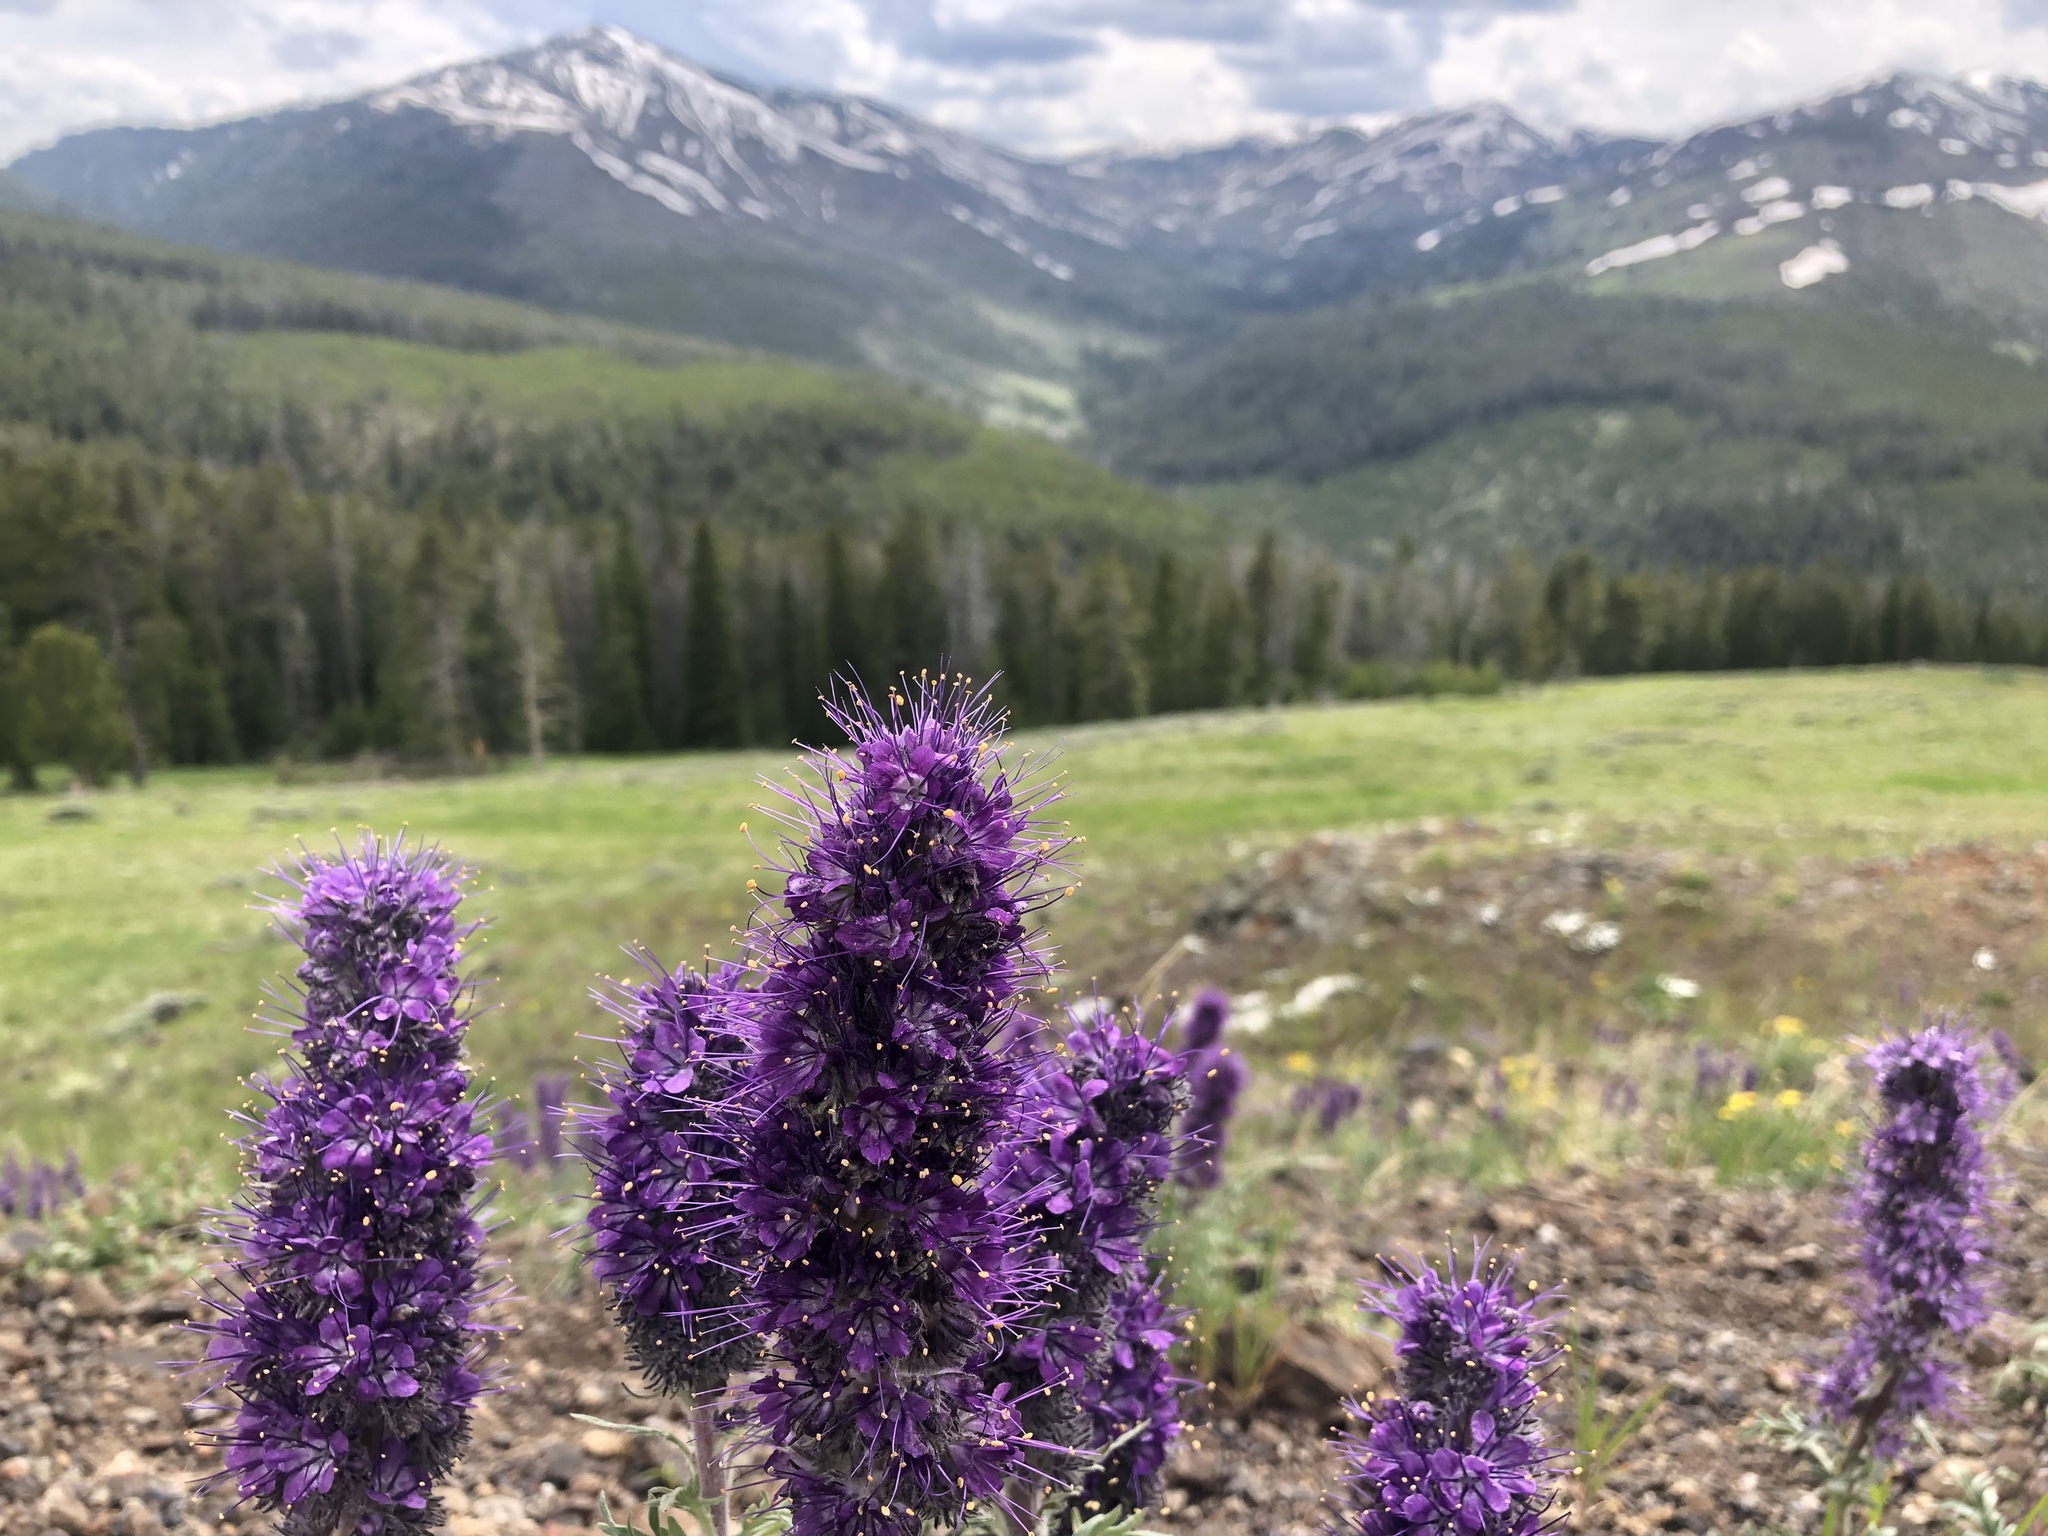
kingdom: Plantae
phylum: Tracheophyta
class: Magnoliopsida
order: Boraginales
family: Hydrophyllaceae
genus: Phacelia
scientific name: Phacelia sericea
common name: Silky phacelia
